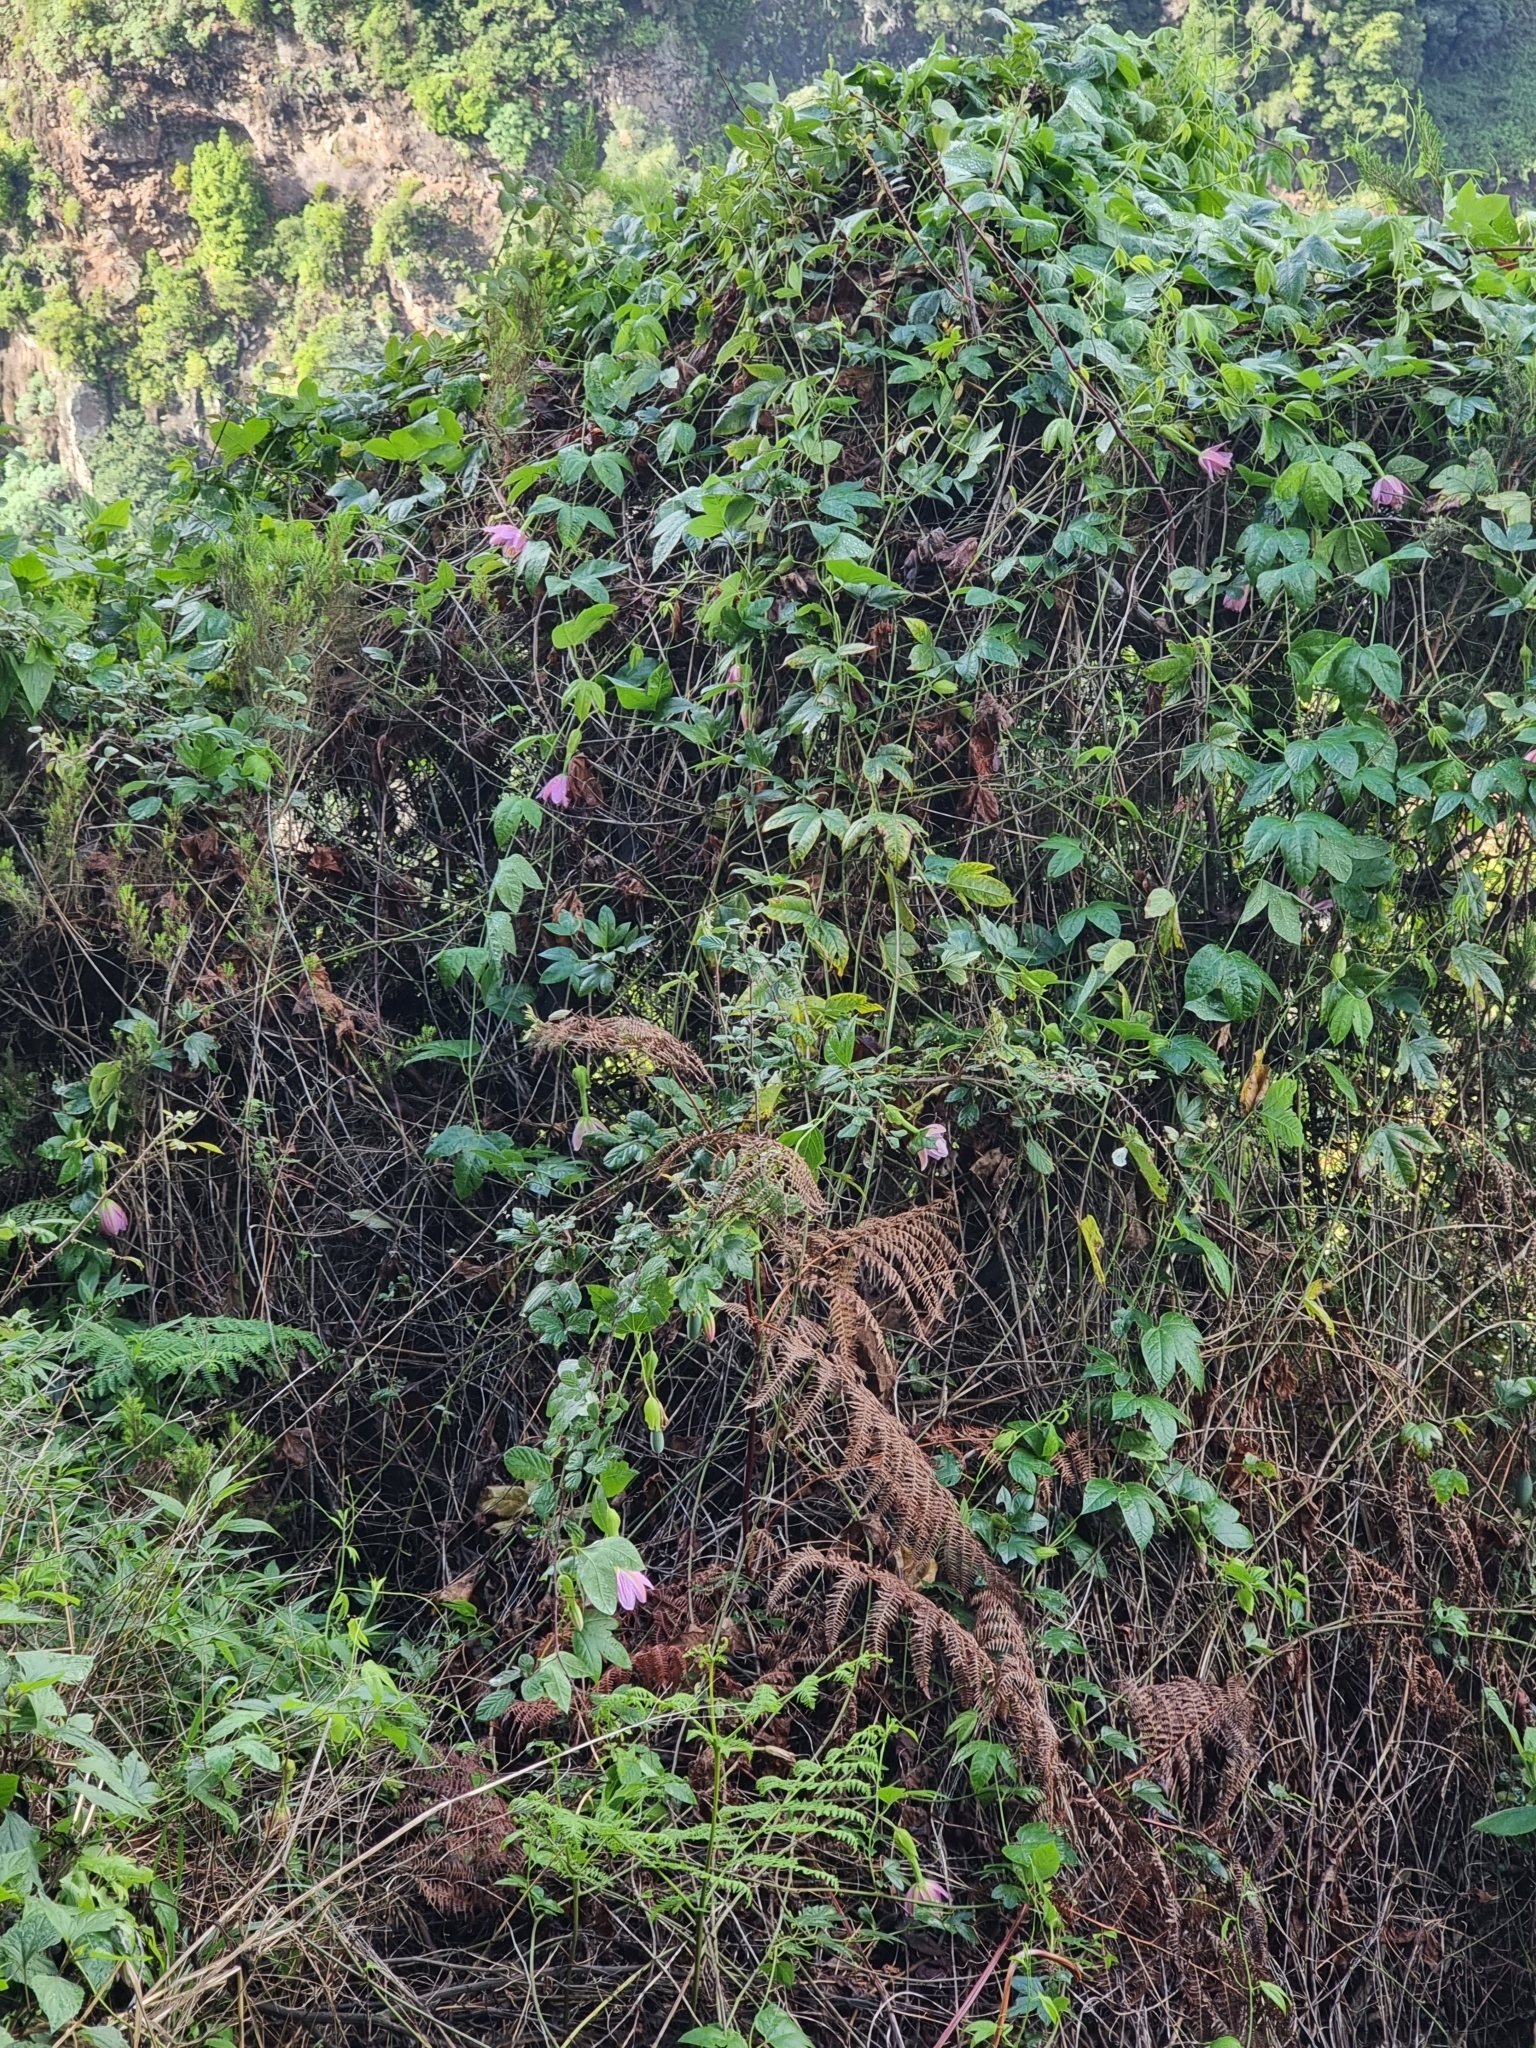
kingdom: Plantae
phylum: Tracheophyta
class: Magnoliopsida
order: Malpighiales
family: Passifloraceae
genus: Passiflora
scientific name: Passiflora tarminiana
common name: Banana poka
